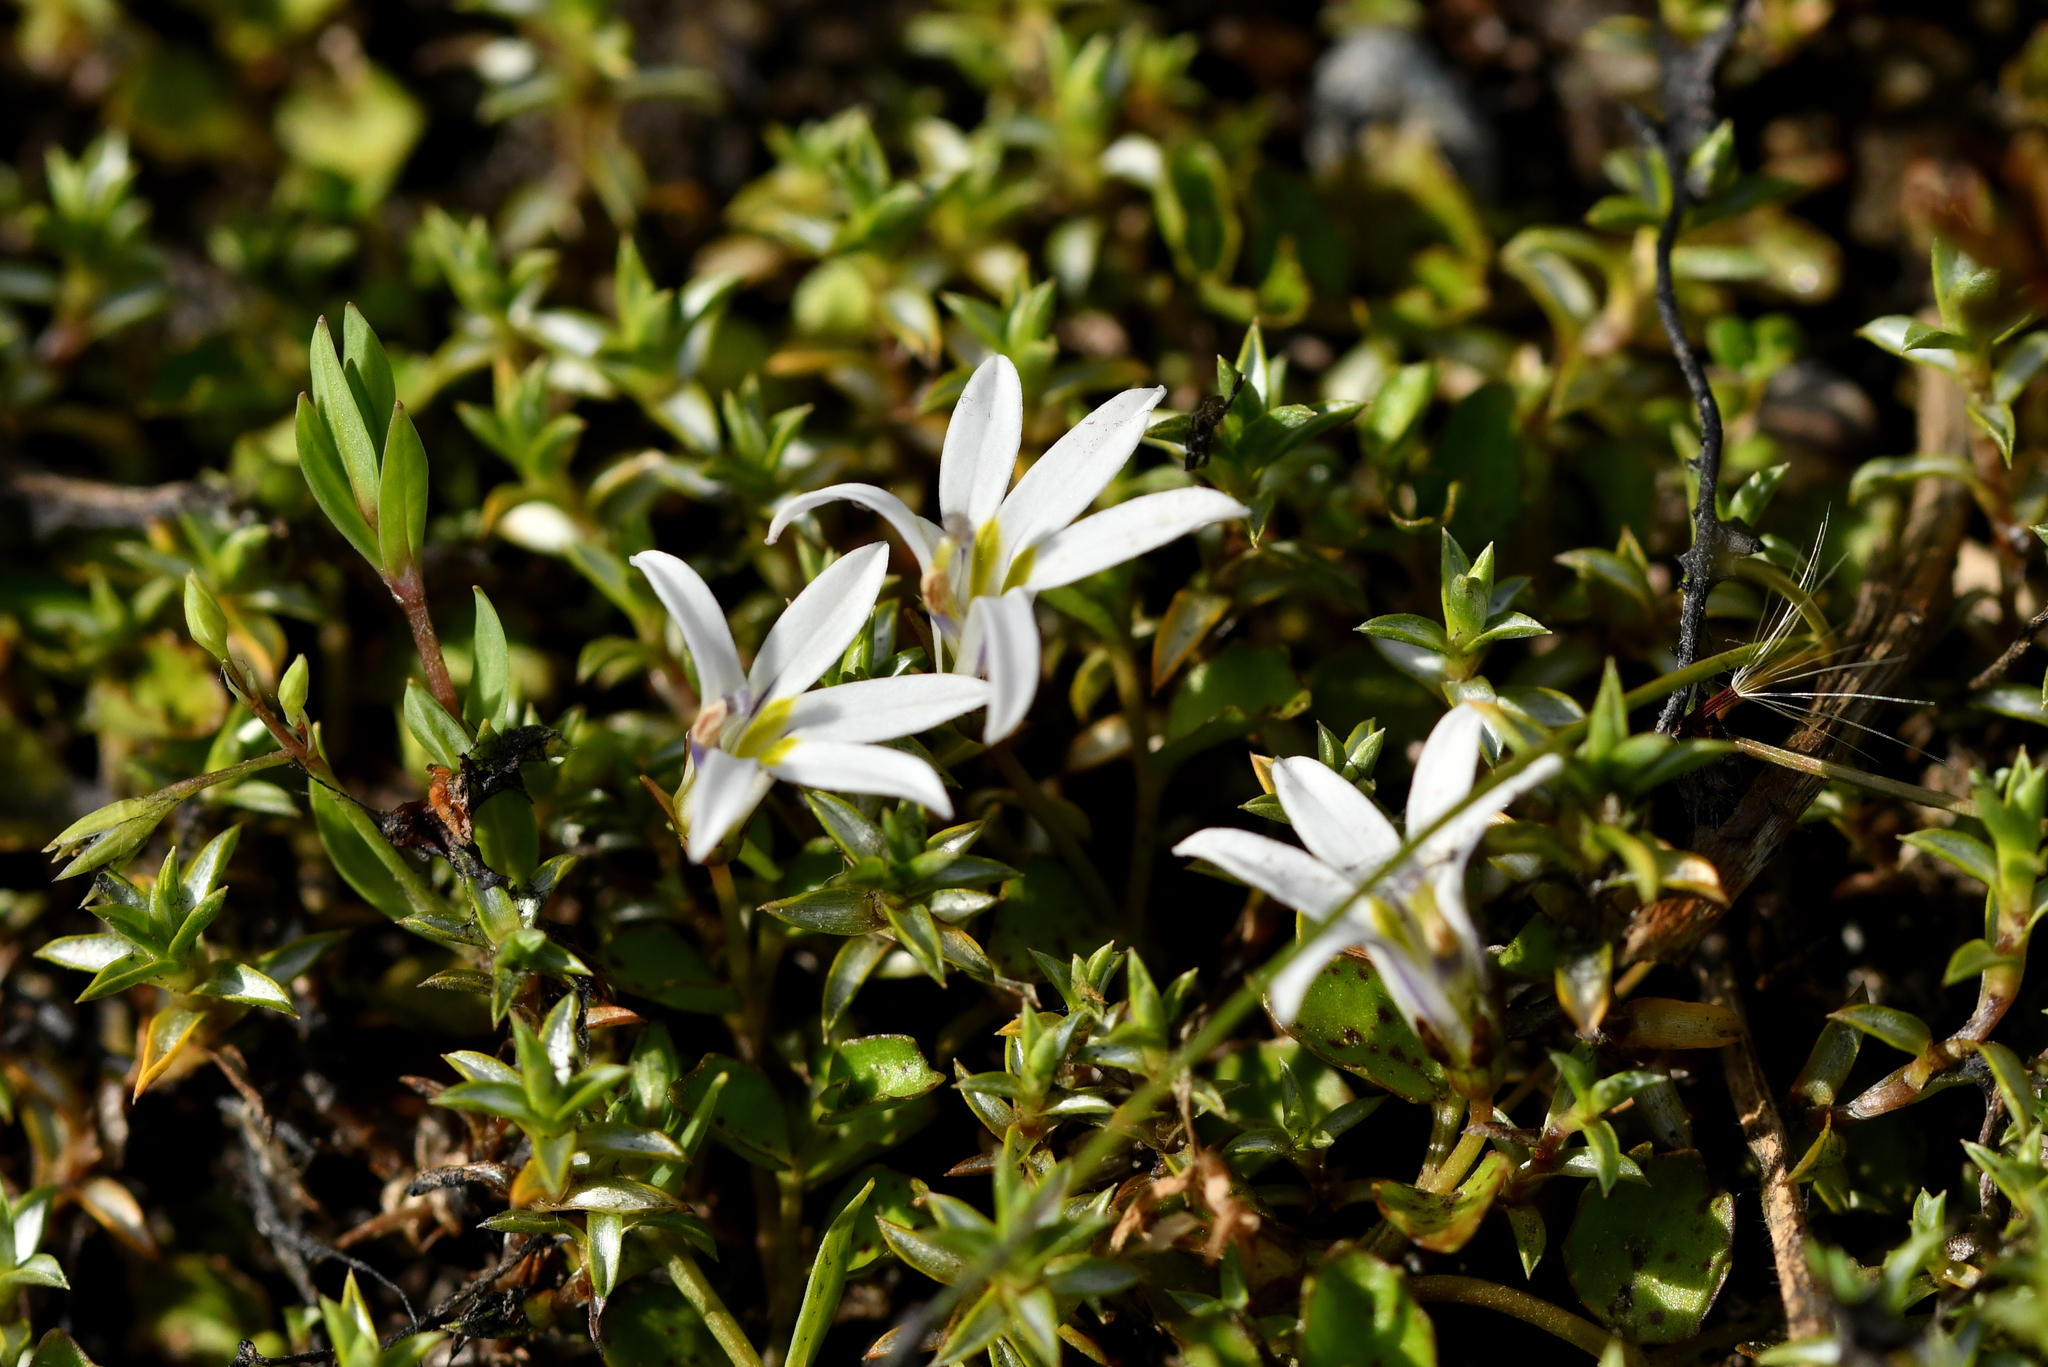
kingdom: Plantae
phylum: Tracheophyta
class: Magnoliopsida
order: Asterales
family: Campanulaceae
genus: Lobelia
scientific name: Lobelia angulata
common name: Lawn lobelia
